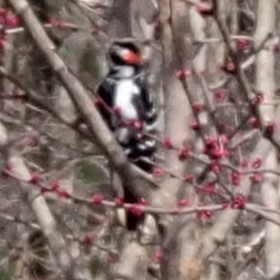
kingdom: Animalia
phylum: Chordata
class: Aves
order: Piciformes
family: Picidae
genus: Leuconotopicus
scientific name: Leuconotopicus villosus
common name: Hairy woodpecker
